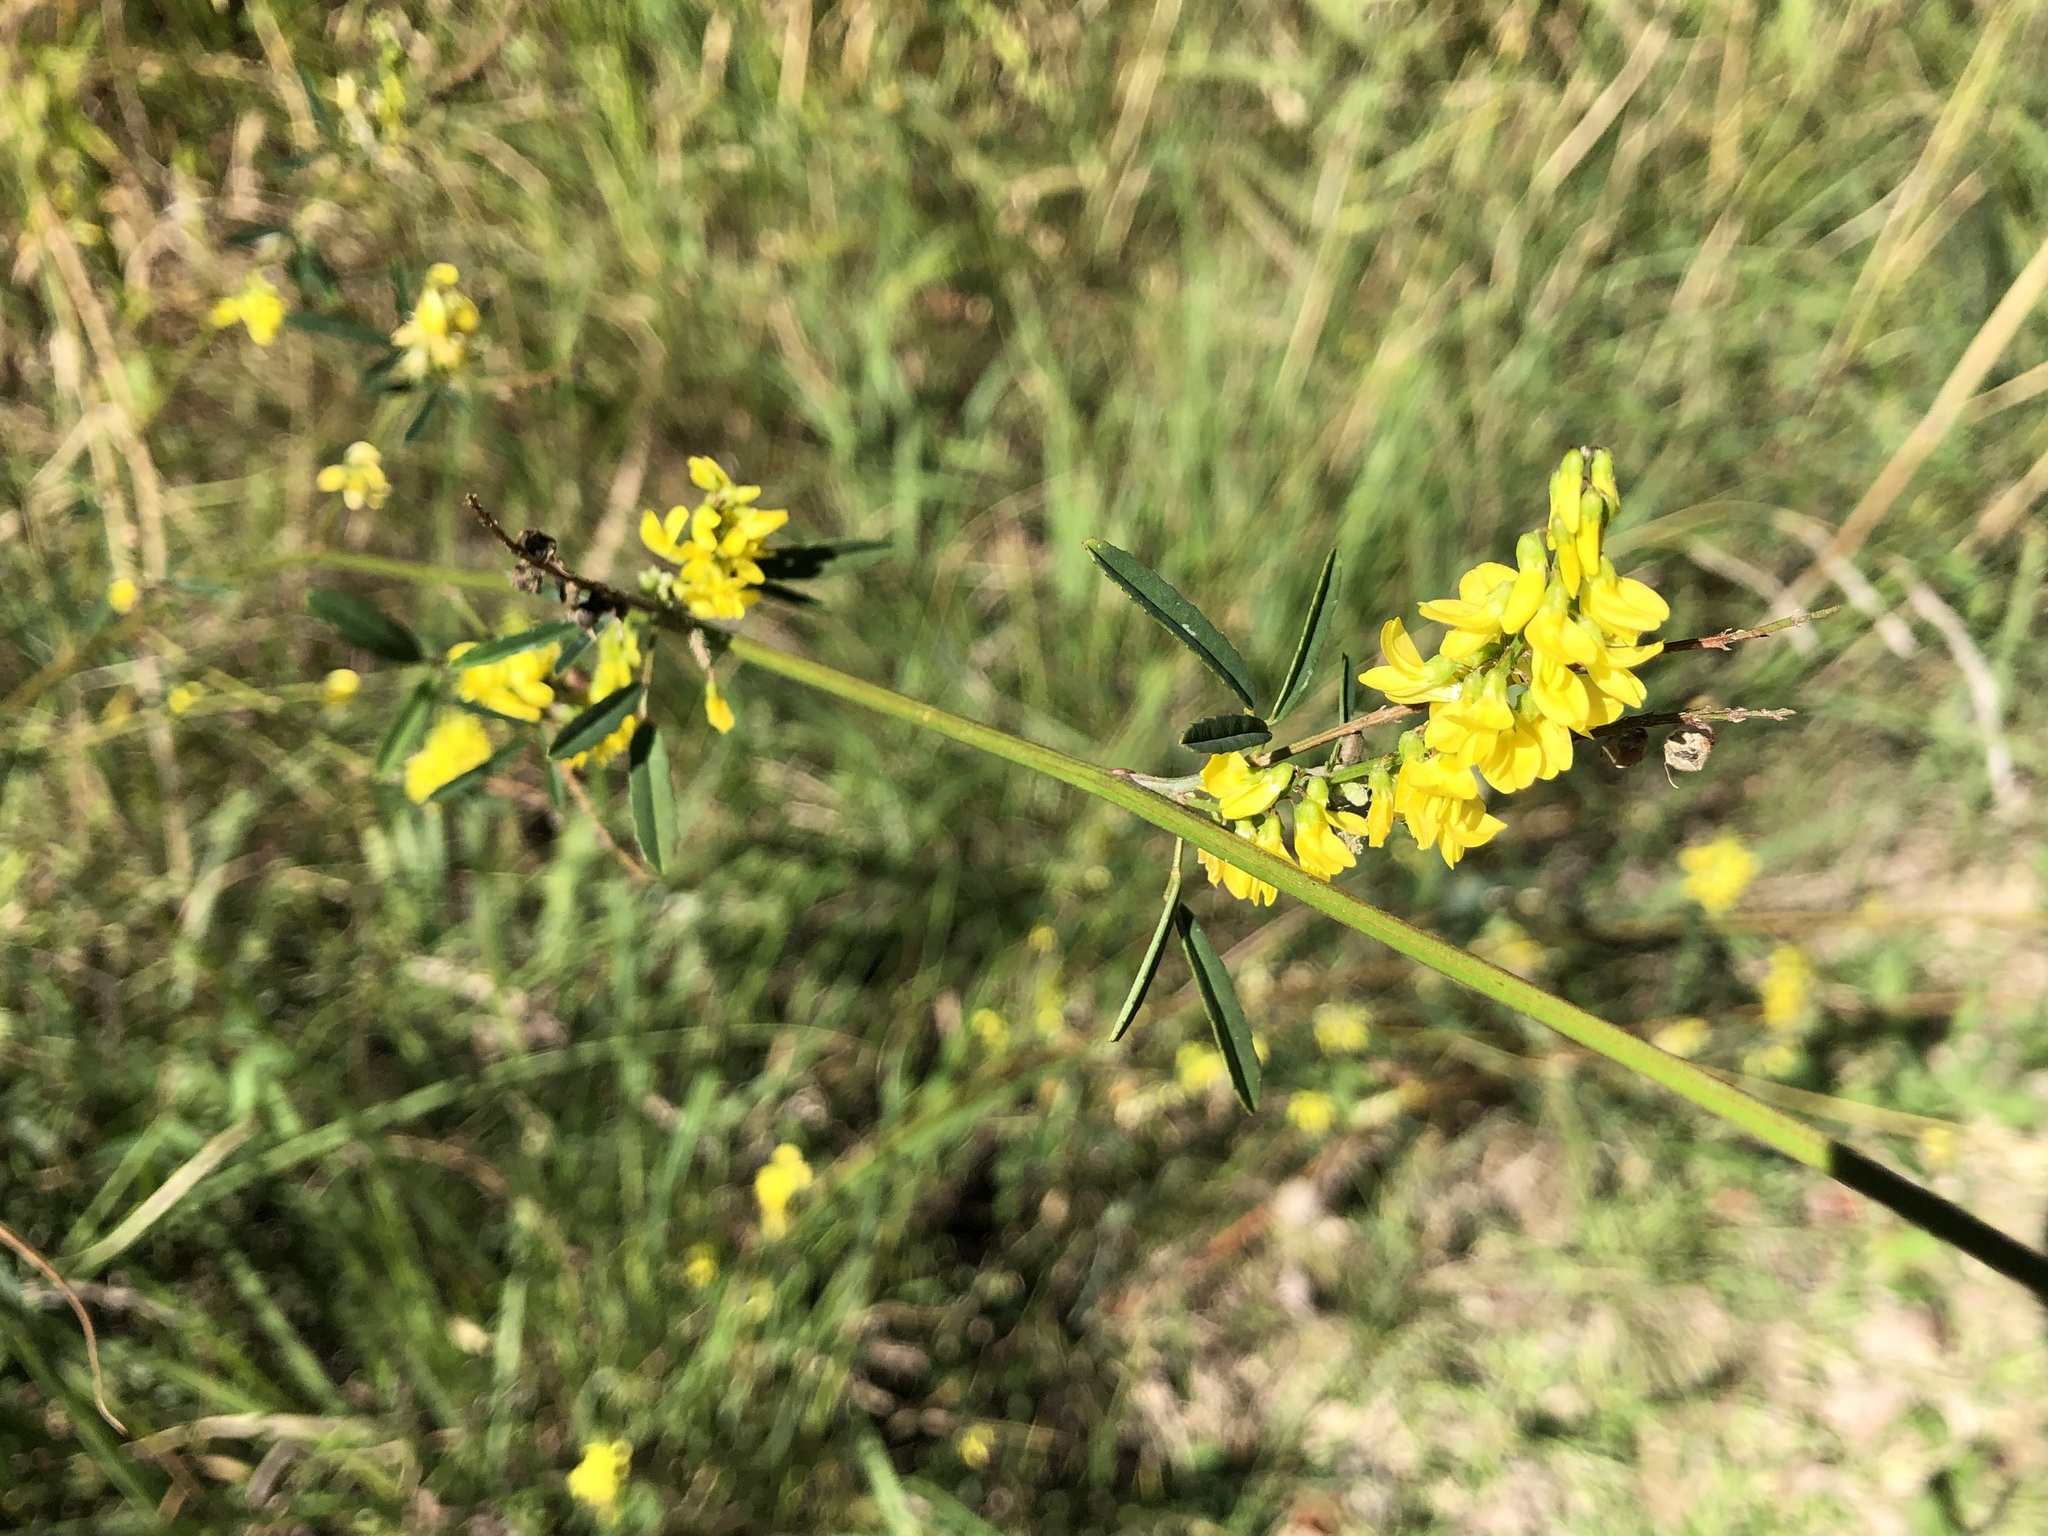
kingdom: Plantae
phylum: Tracheophyta
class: Magnoliopsida
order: Fabales
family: Fabaceae
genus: Melilotus
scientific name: Melilotus officinalis
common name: Sweetclover
